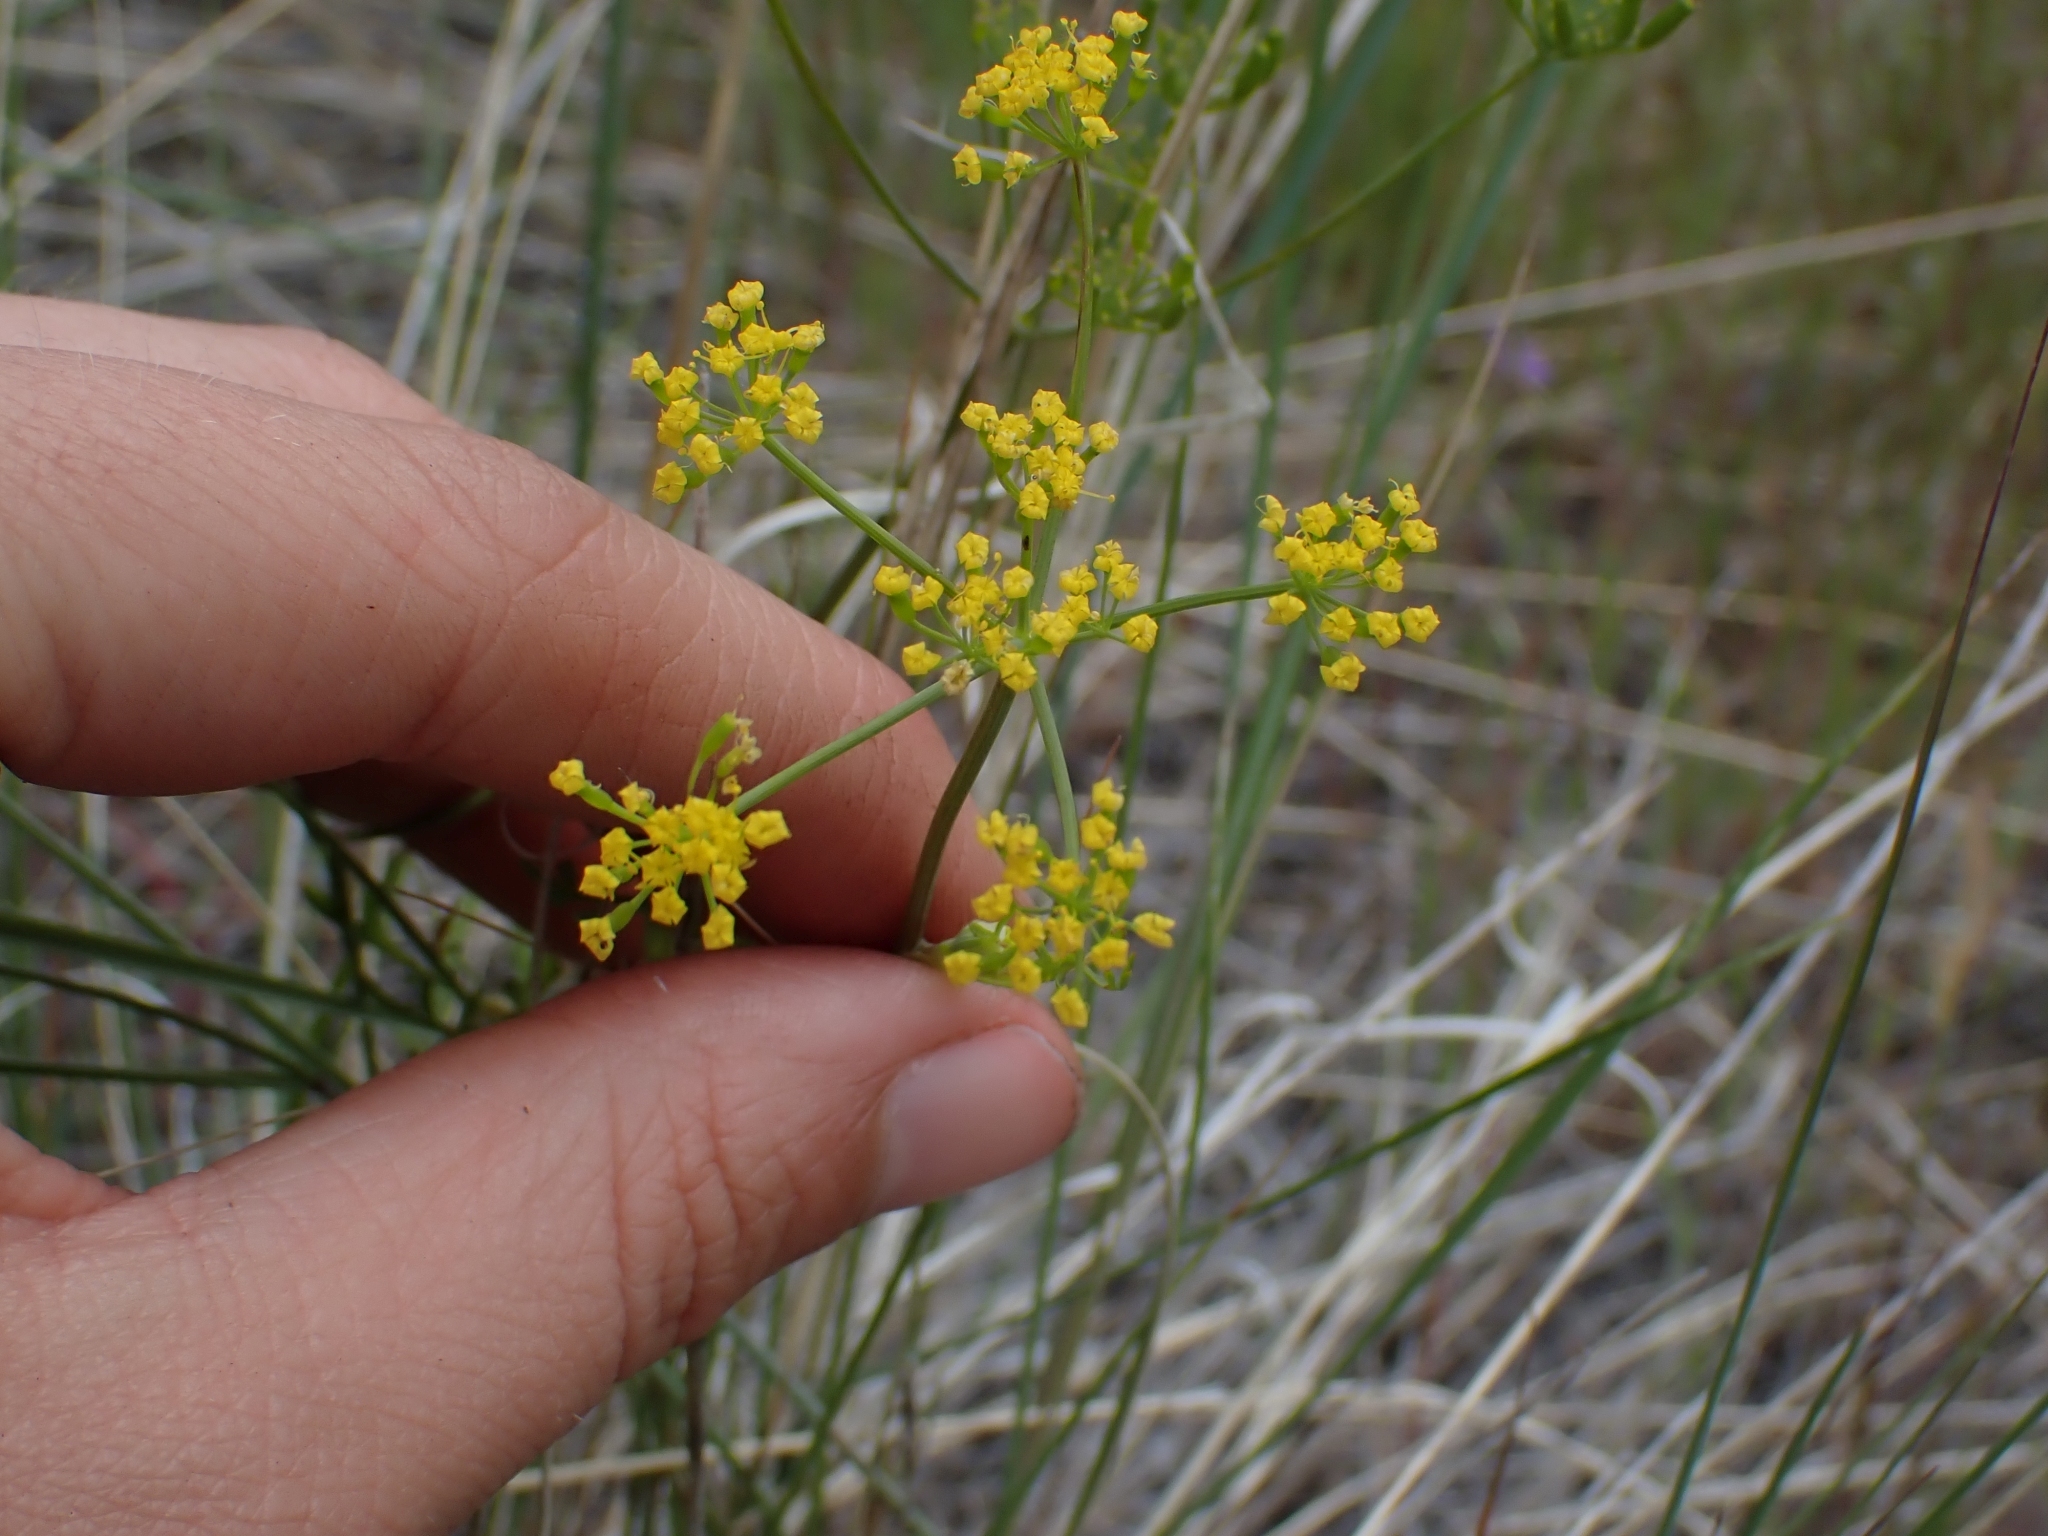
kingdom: Plantae
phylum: Tracheophyta
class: Magnoliopsida
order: Apiales
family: Apiaceae
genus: Lomatium
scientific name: Lomatium ambiguum
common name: Lacy lomatium
